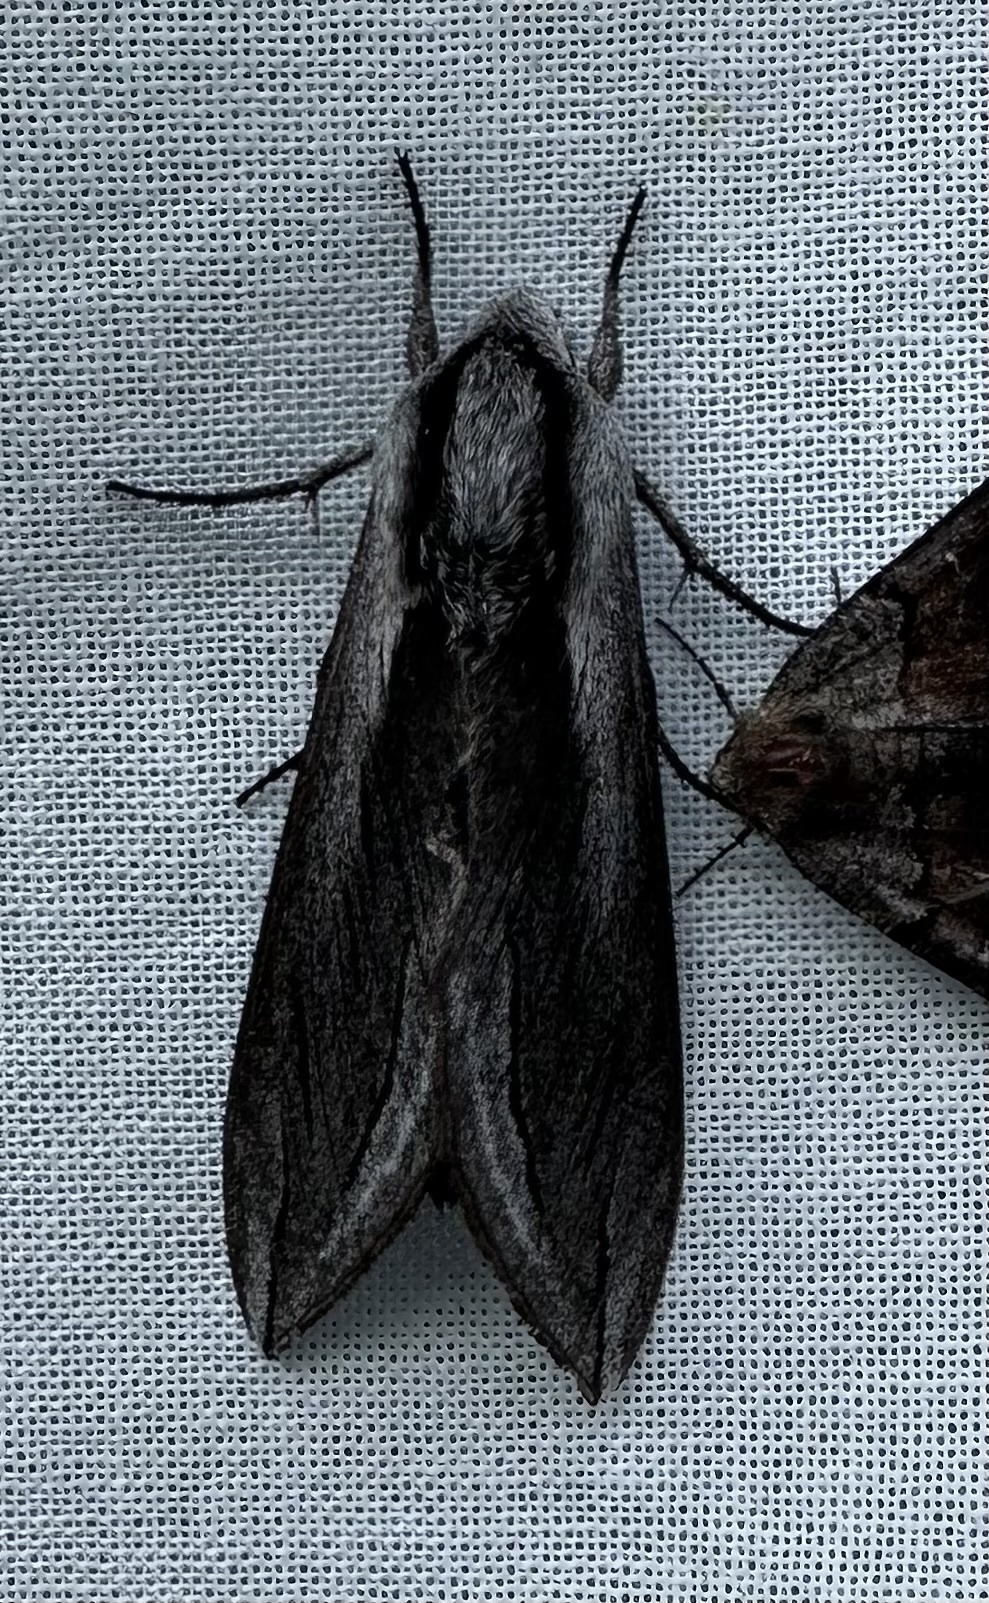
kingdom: Animalia
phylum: Arthropoda
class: Insecta
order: Lepidoptera
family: Sphingidae
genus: Sphinx
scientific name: Sphinx vashti
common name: Snowberry sphinx
